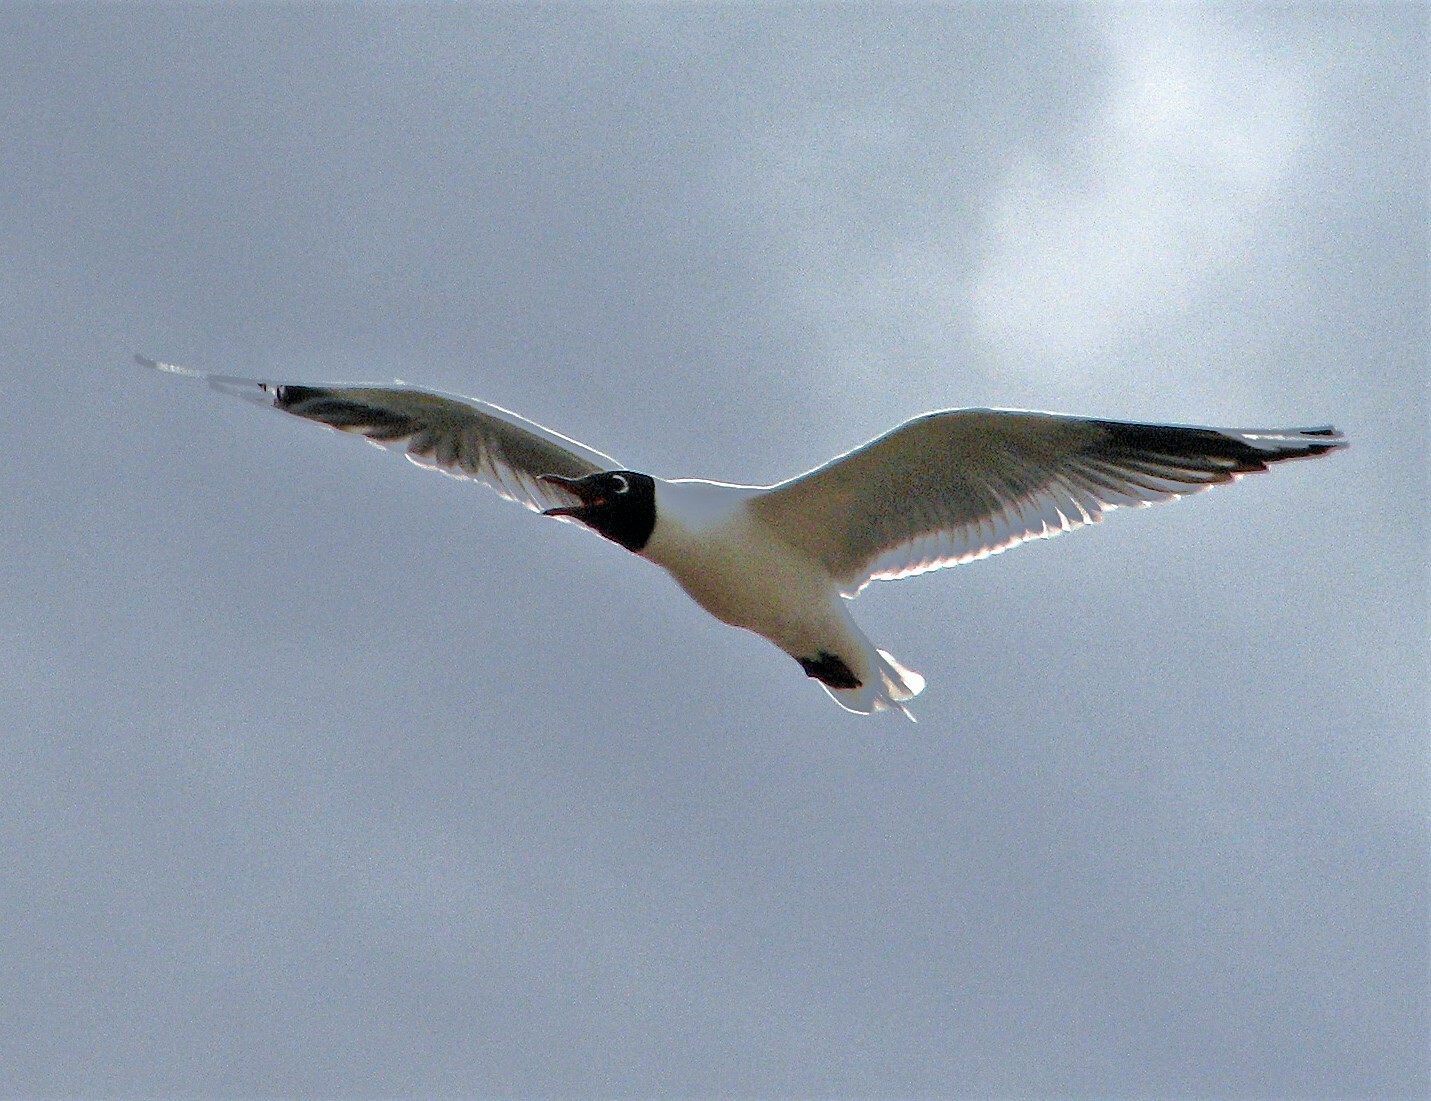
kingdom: Animalia
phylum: Chordata
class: Aves
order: Charadriiformes
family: Laridae
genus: Chroicocephalus
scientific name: Chroicocephalus serranus
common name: Andean gull
